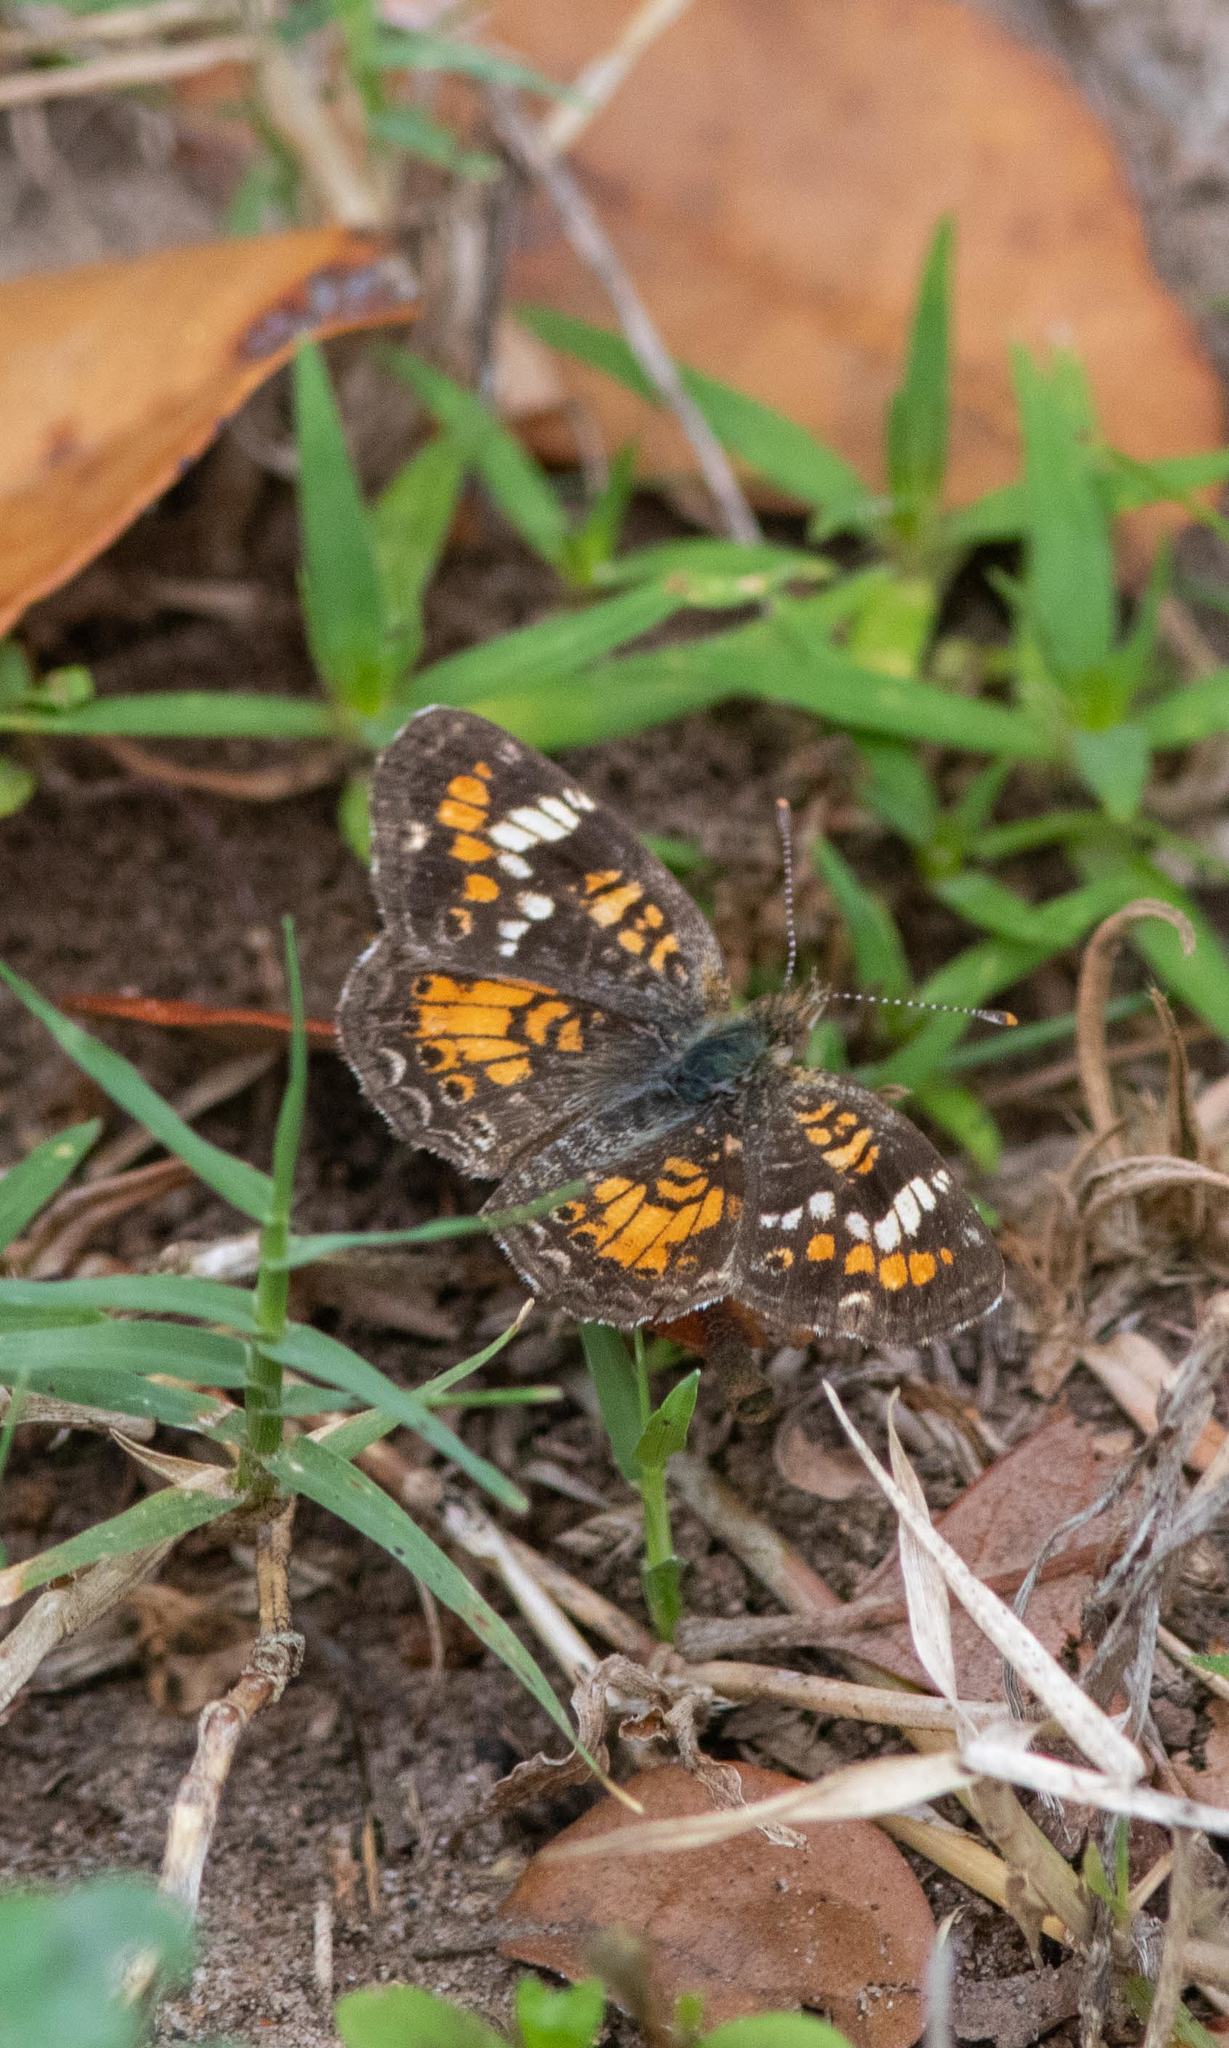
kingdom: Animalia
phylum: Arthropoda
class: Insecta
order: Lepidoptera
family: Nymphalidae
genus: Phyciodes
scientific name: Phyciodes phaon
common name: Phaon crescent
